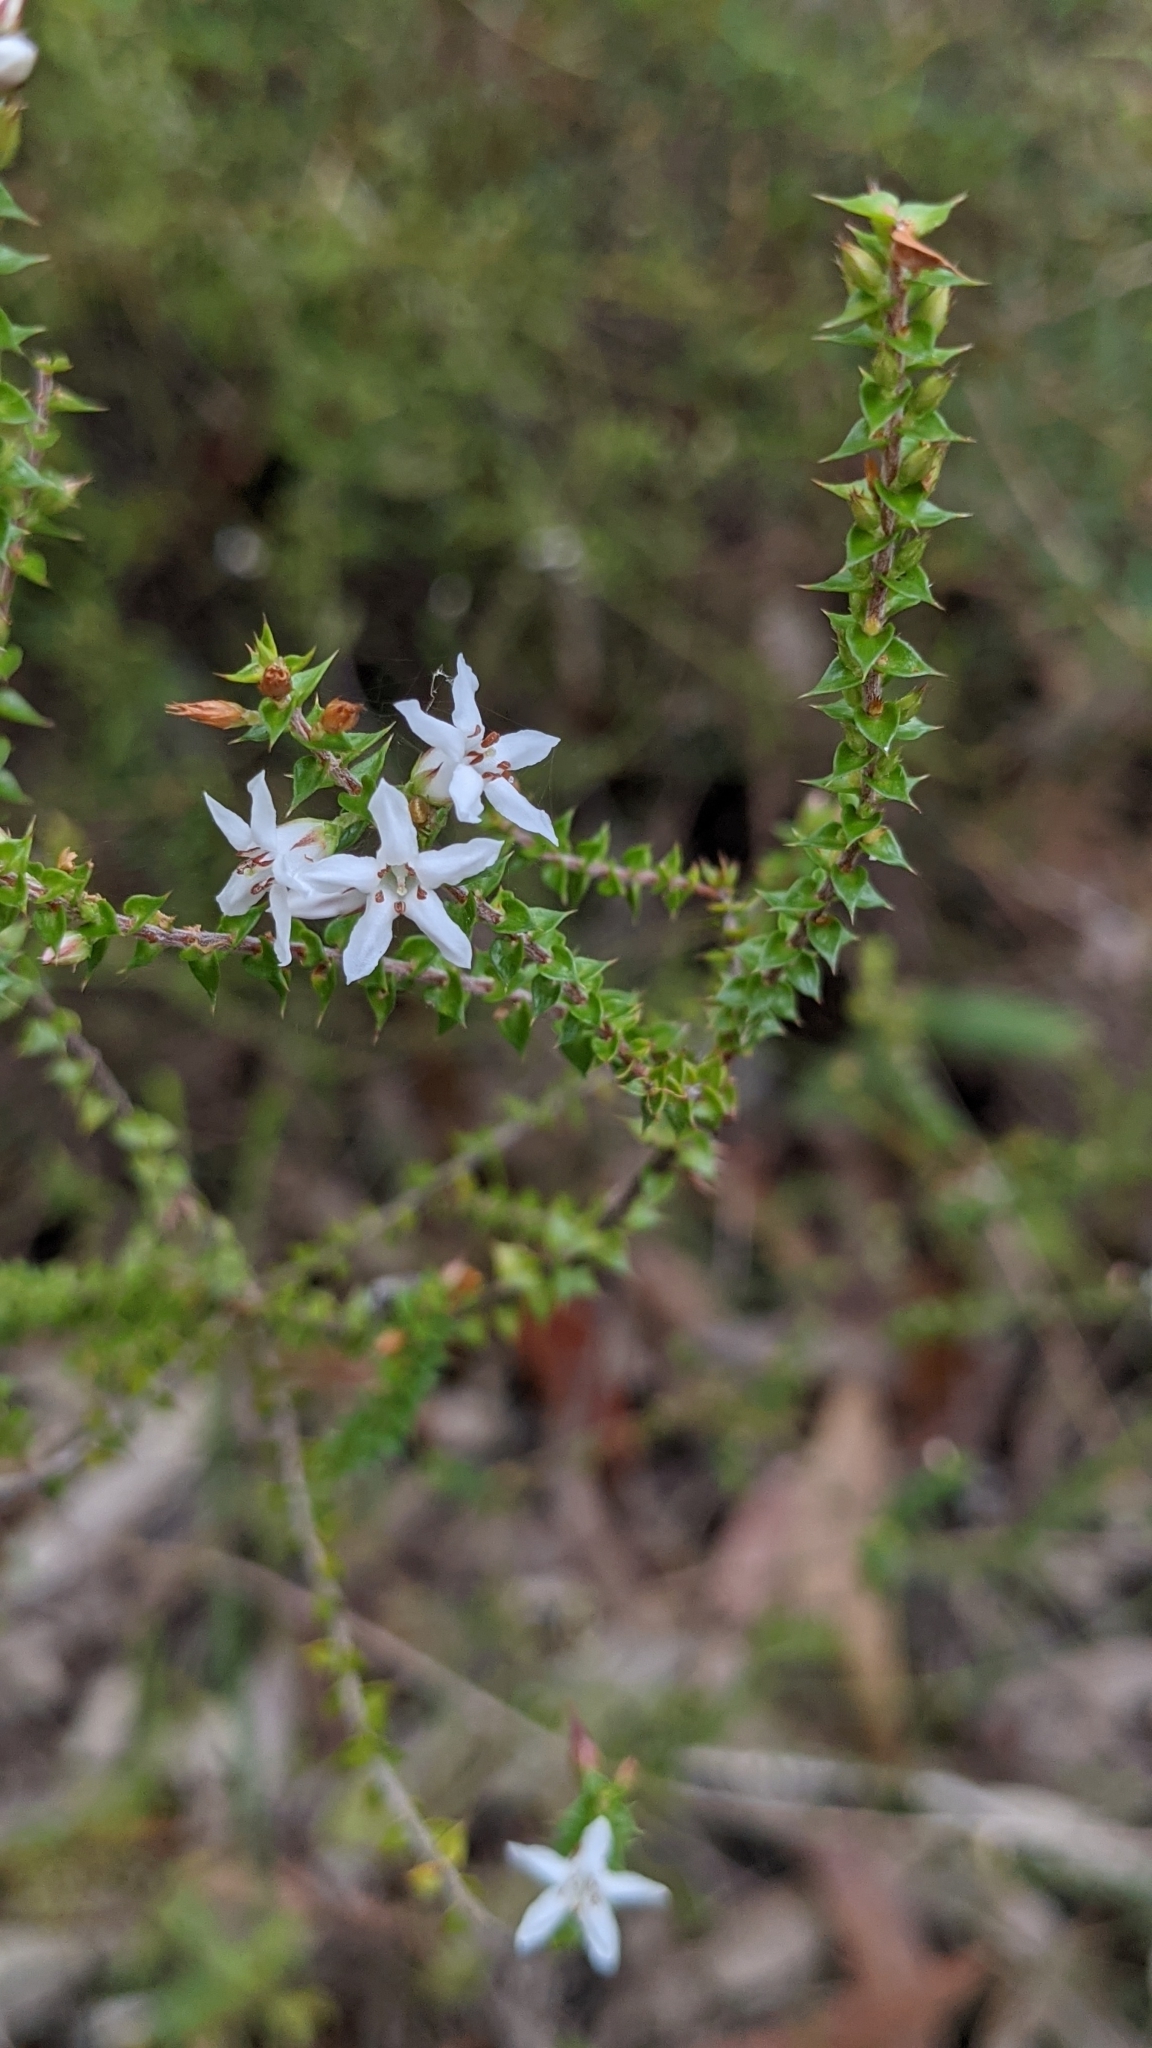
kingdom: Plantae
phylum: Tracheophyta
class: Magnoliopsida
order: Ericales
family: Ericaceae
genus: Epacris
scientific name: Epacris pulchella
